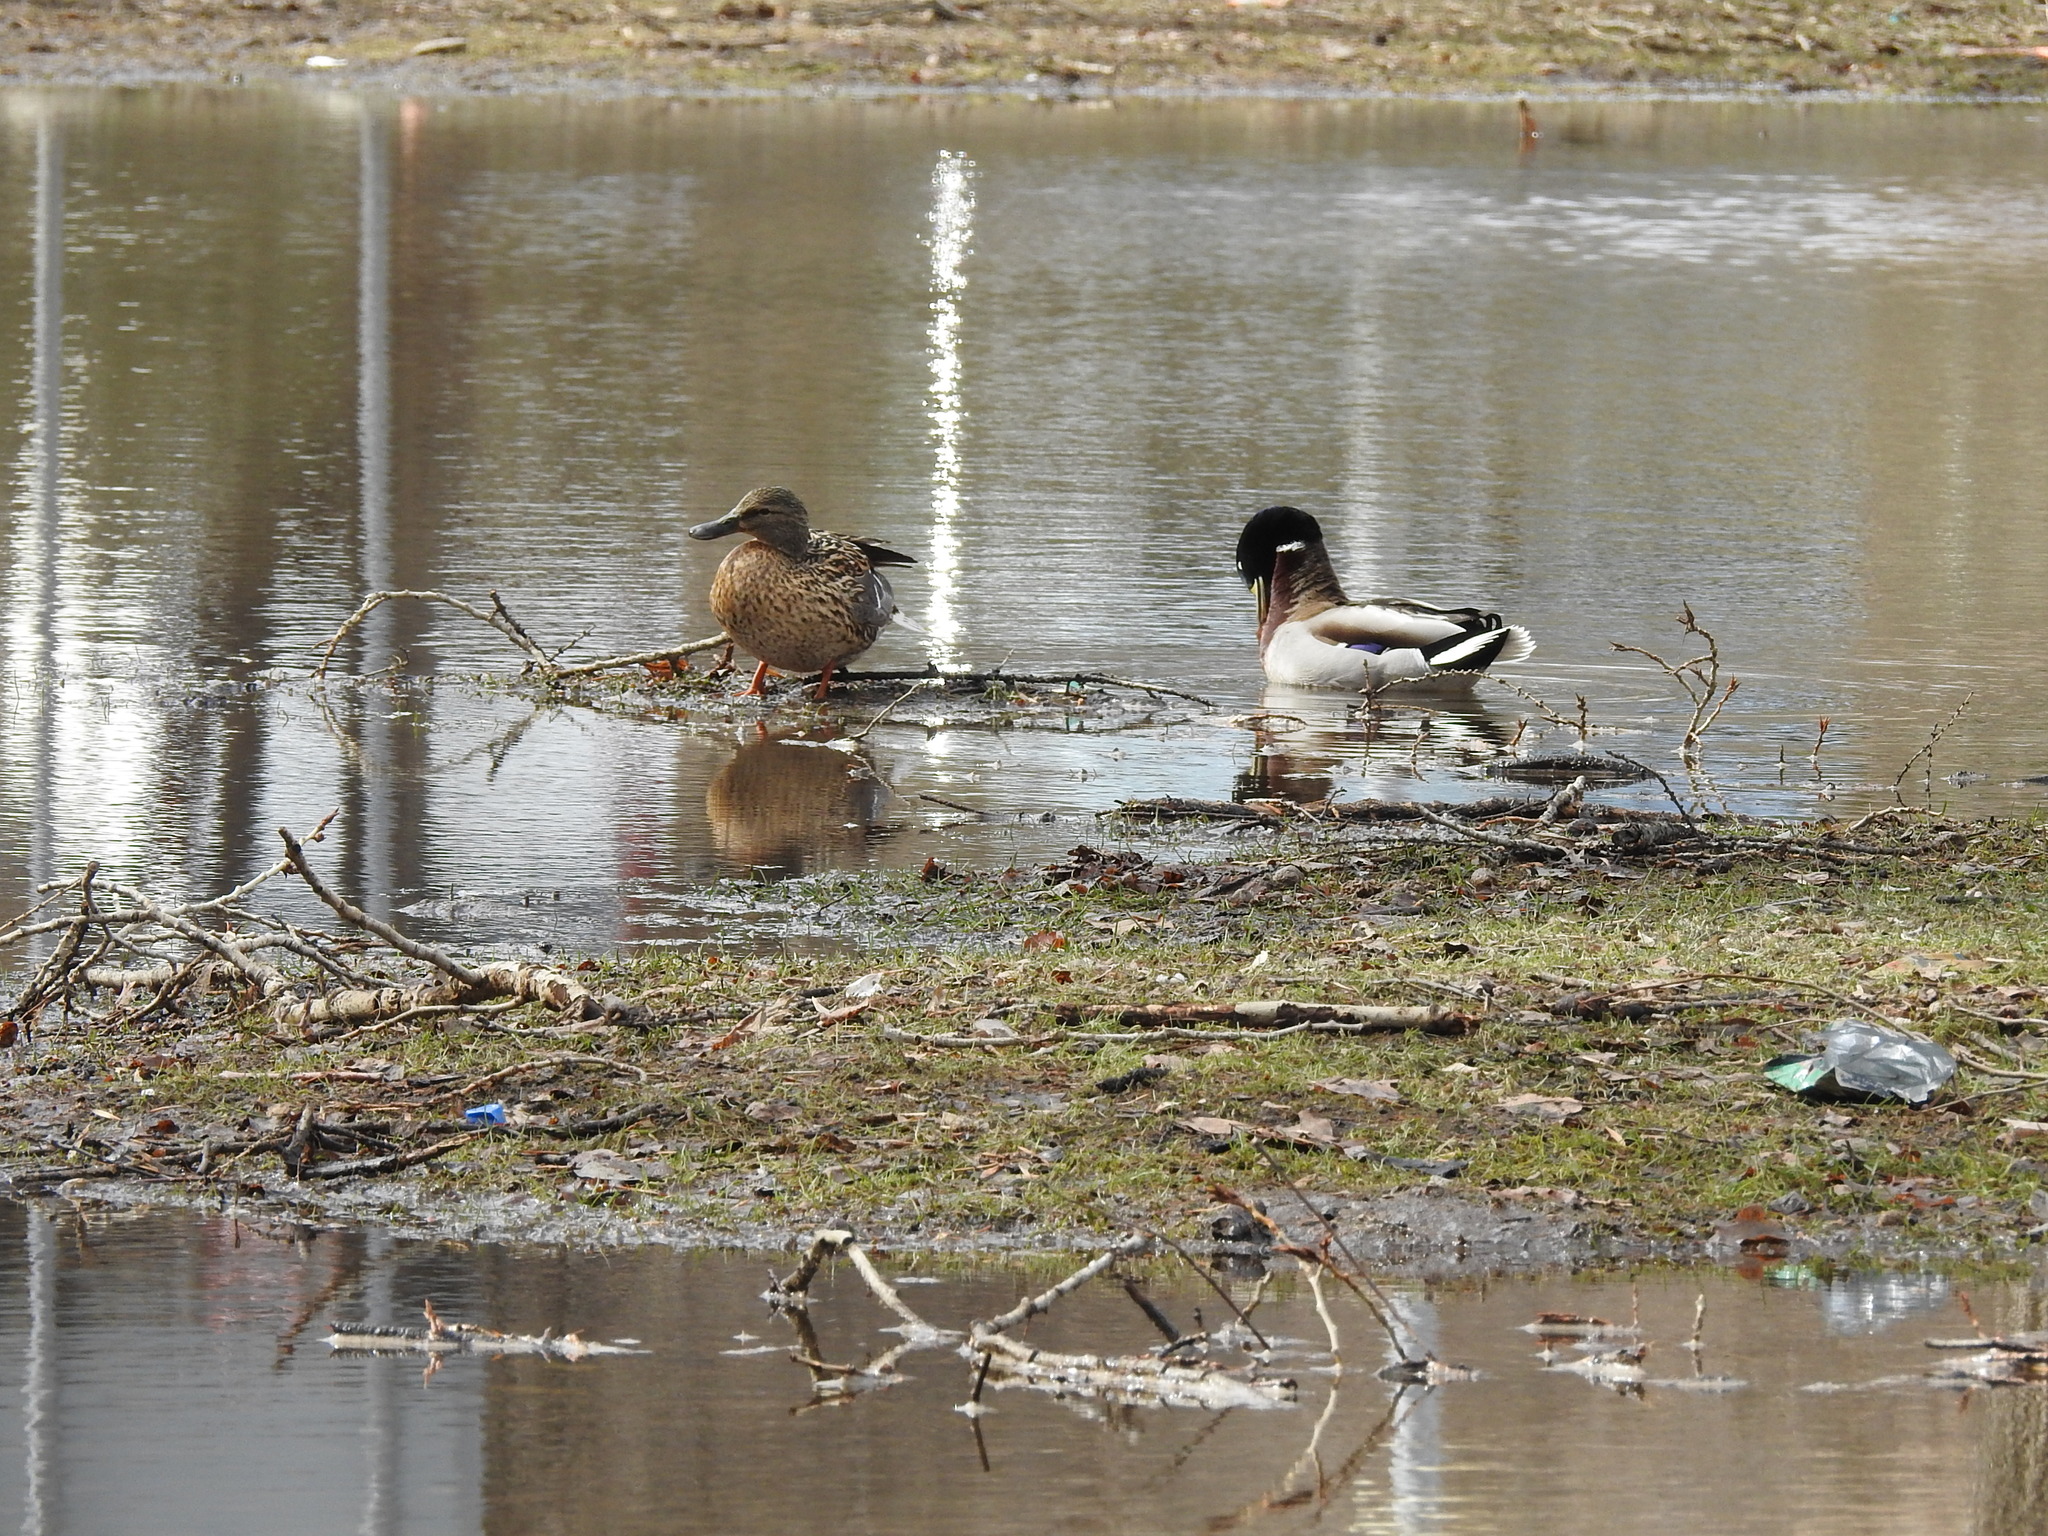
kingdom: Animalia
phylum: Chordata
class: Aves
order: Anseriformes
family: Anatidae
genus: Anas
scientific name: Anas platyrhynchos
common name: Mallard
